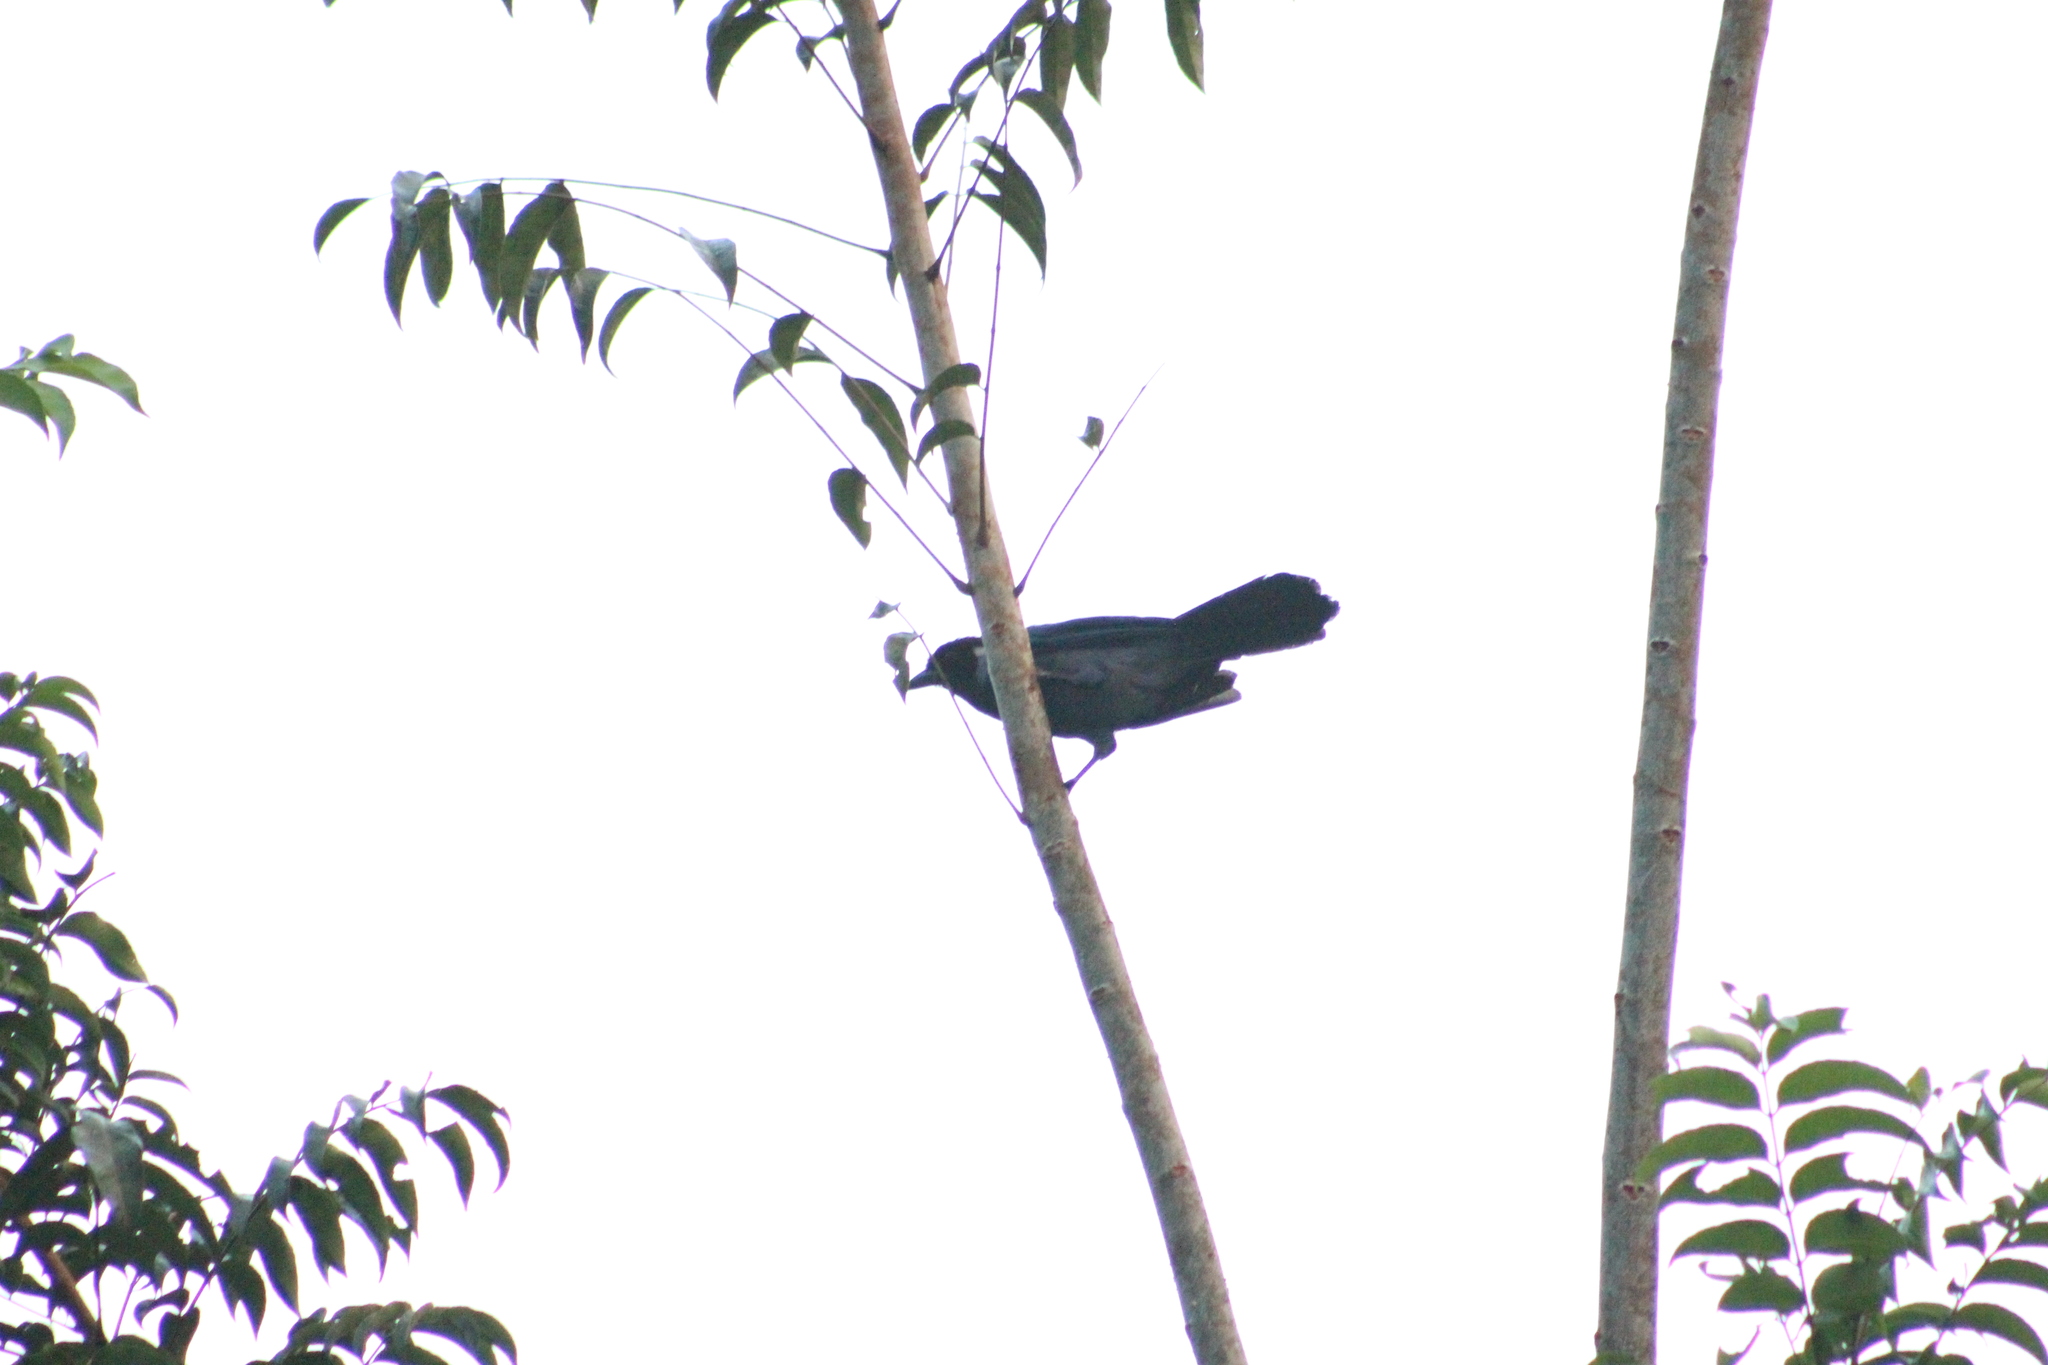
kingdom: Animalia
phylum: Chordata
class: Aves
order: Passeriformes
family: Corvidae
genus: Cyanocorax
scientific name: Cyanocorax violaceus
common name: Violaceous jay
